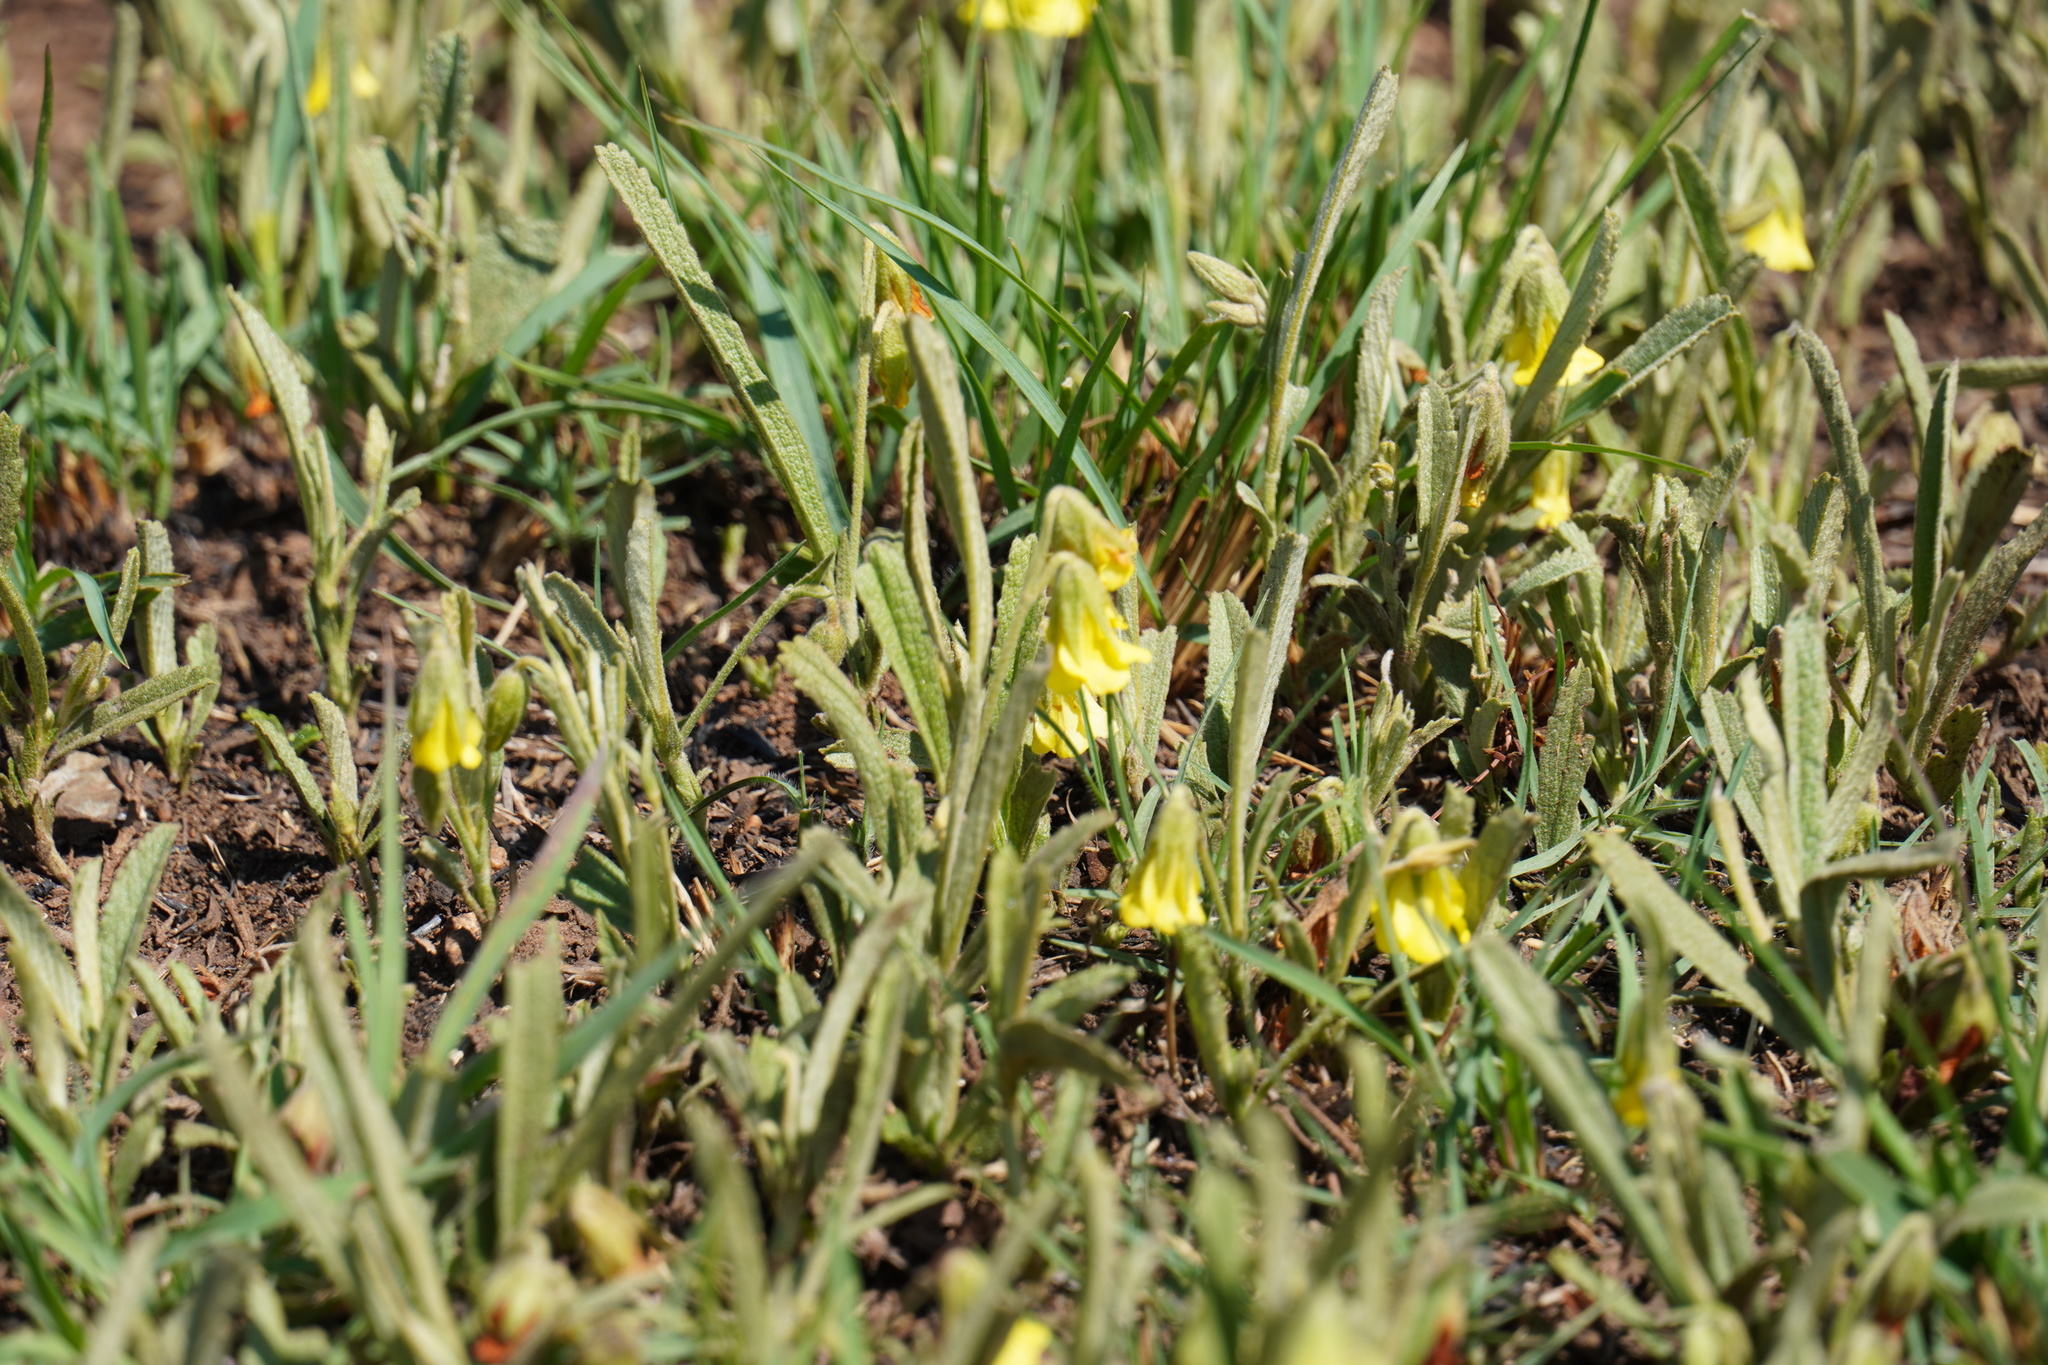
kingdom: Plantae
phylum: Tracheophyta
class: Magnoliopsida
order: Malvales
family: Malvaceae
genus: Hermannia
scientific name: Hermannia lancifolia
